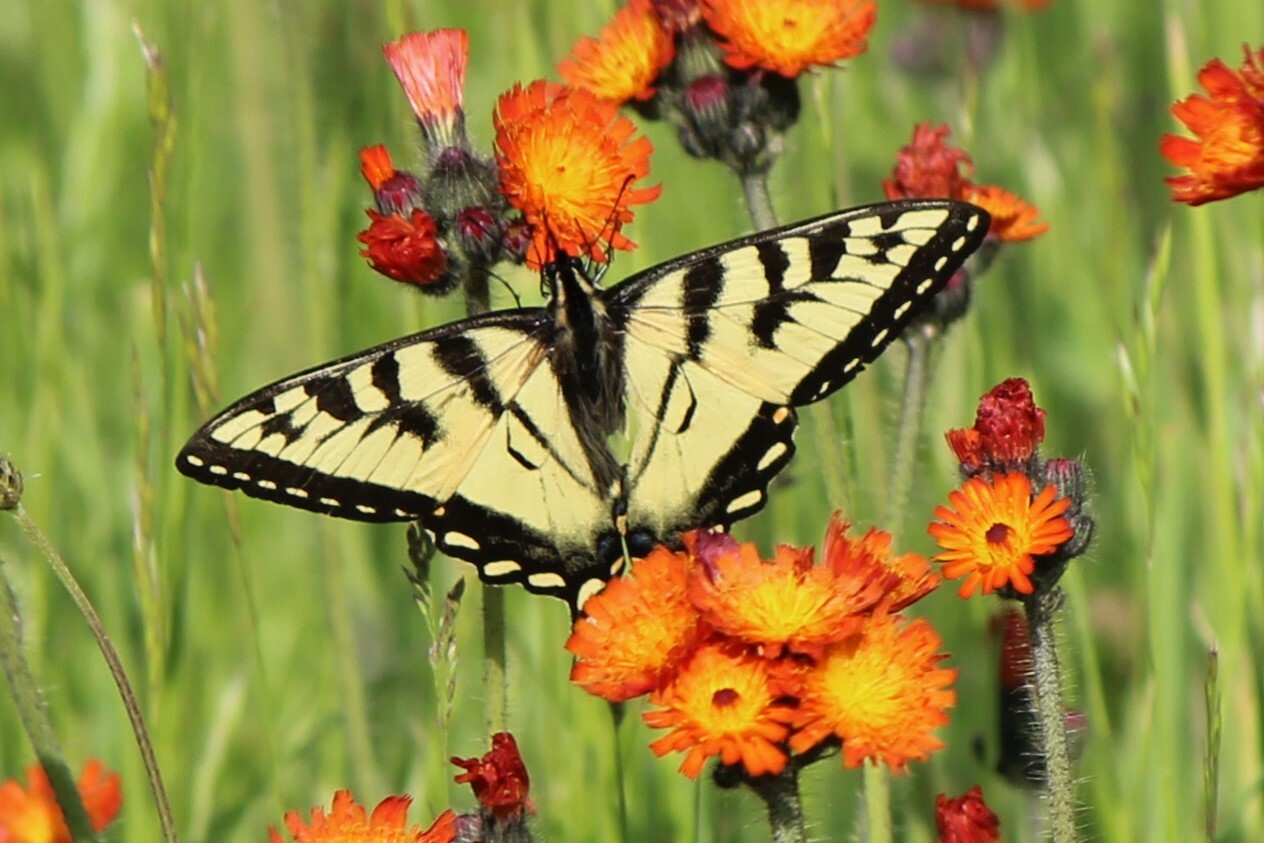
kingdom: Animalia
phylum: Arthropoda
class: Insecta
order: Lepidoptera
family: Papilionidae
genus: Papilio
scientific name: Papilio canadensis
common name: Canadian tiger swallowtail
